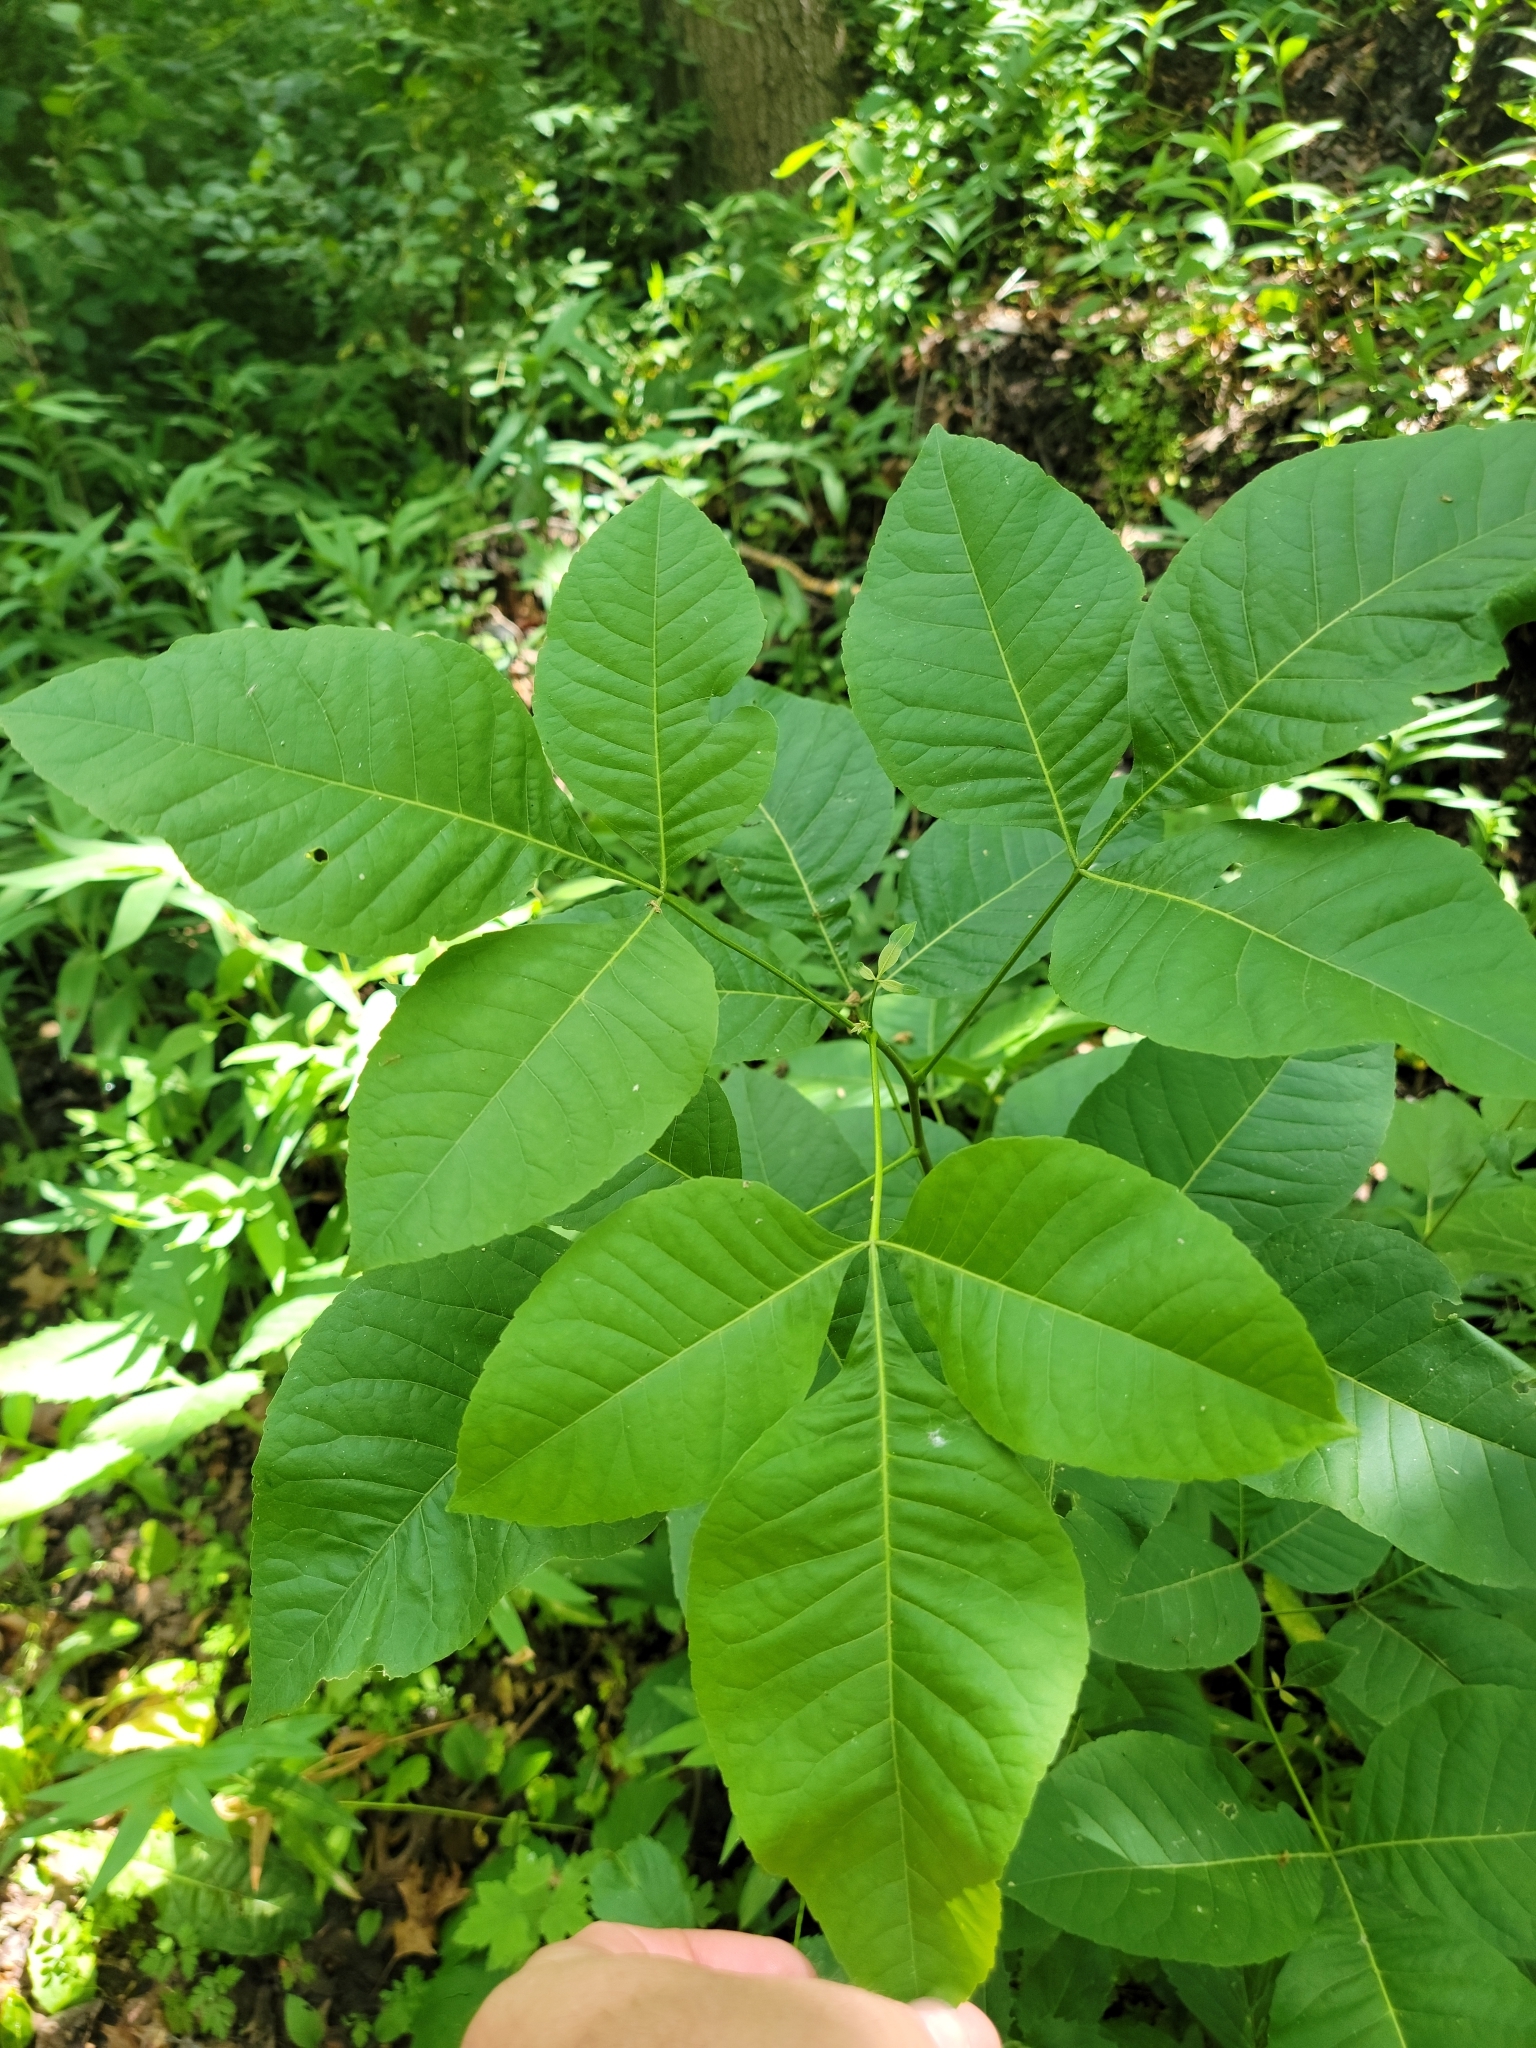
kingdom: Plantae
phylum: Tracheophyta
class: Magnoliopsida
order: Sapindales
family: Rutaceae
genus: Ptelea
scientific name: Ptelea trifoliata
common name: Common hop-tree
